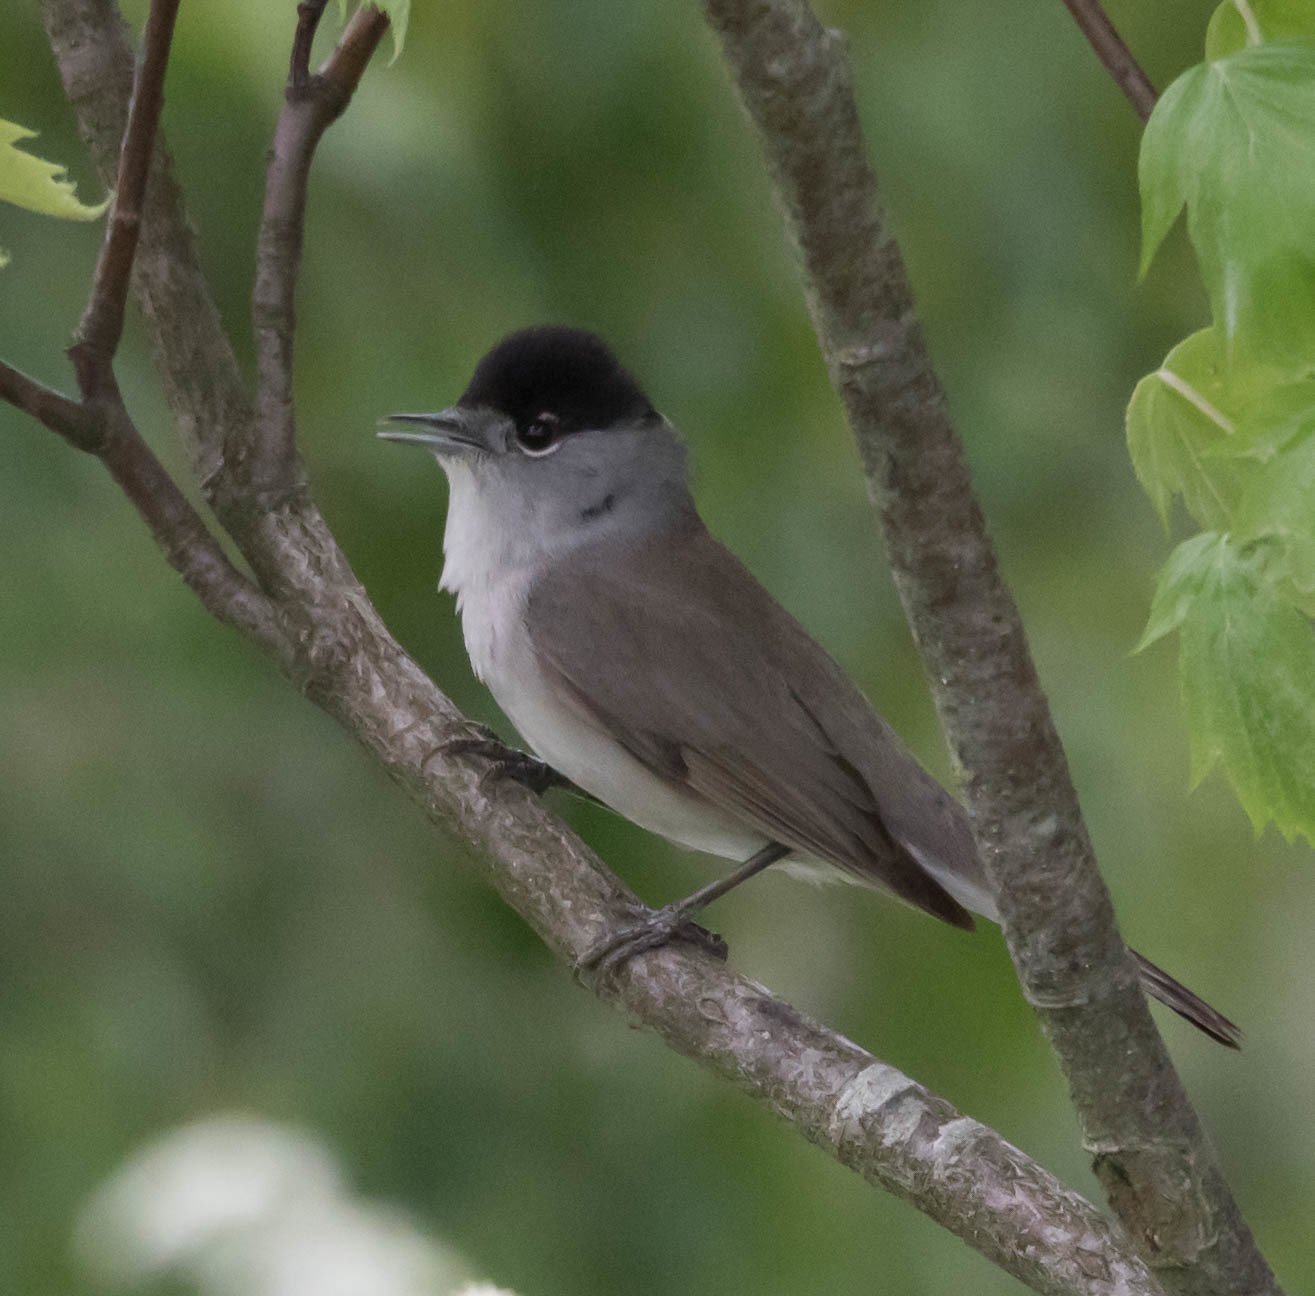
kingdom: Animalia
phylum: Chordata
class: Aves
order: Passeriformes
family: Sylviidae
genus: Sylvia
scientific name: Sylvia atricapilla
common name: Eurasian blackcap
